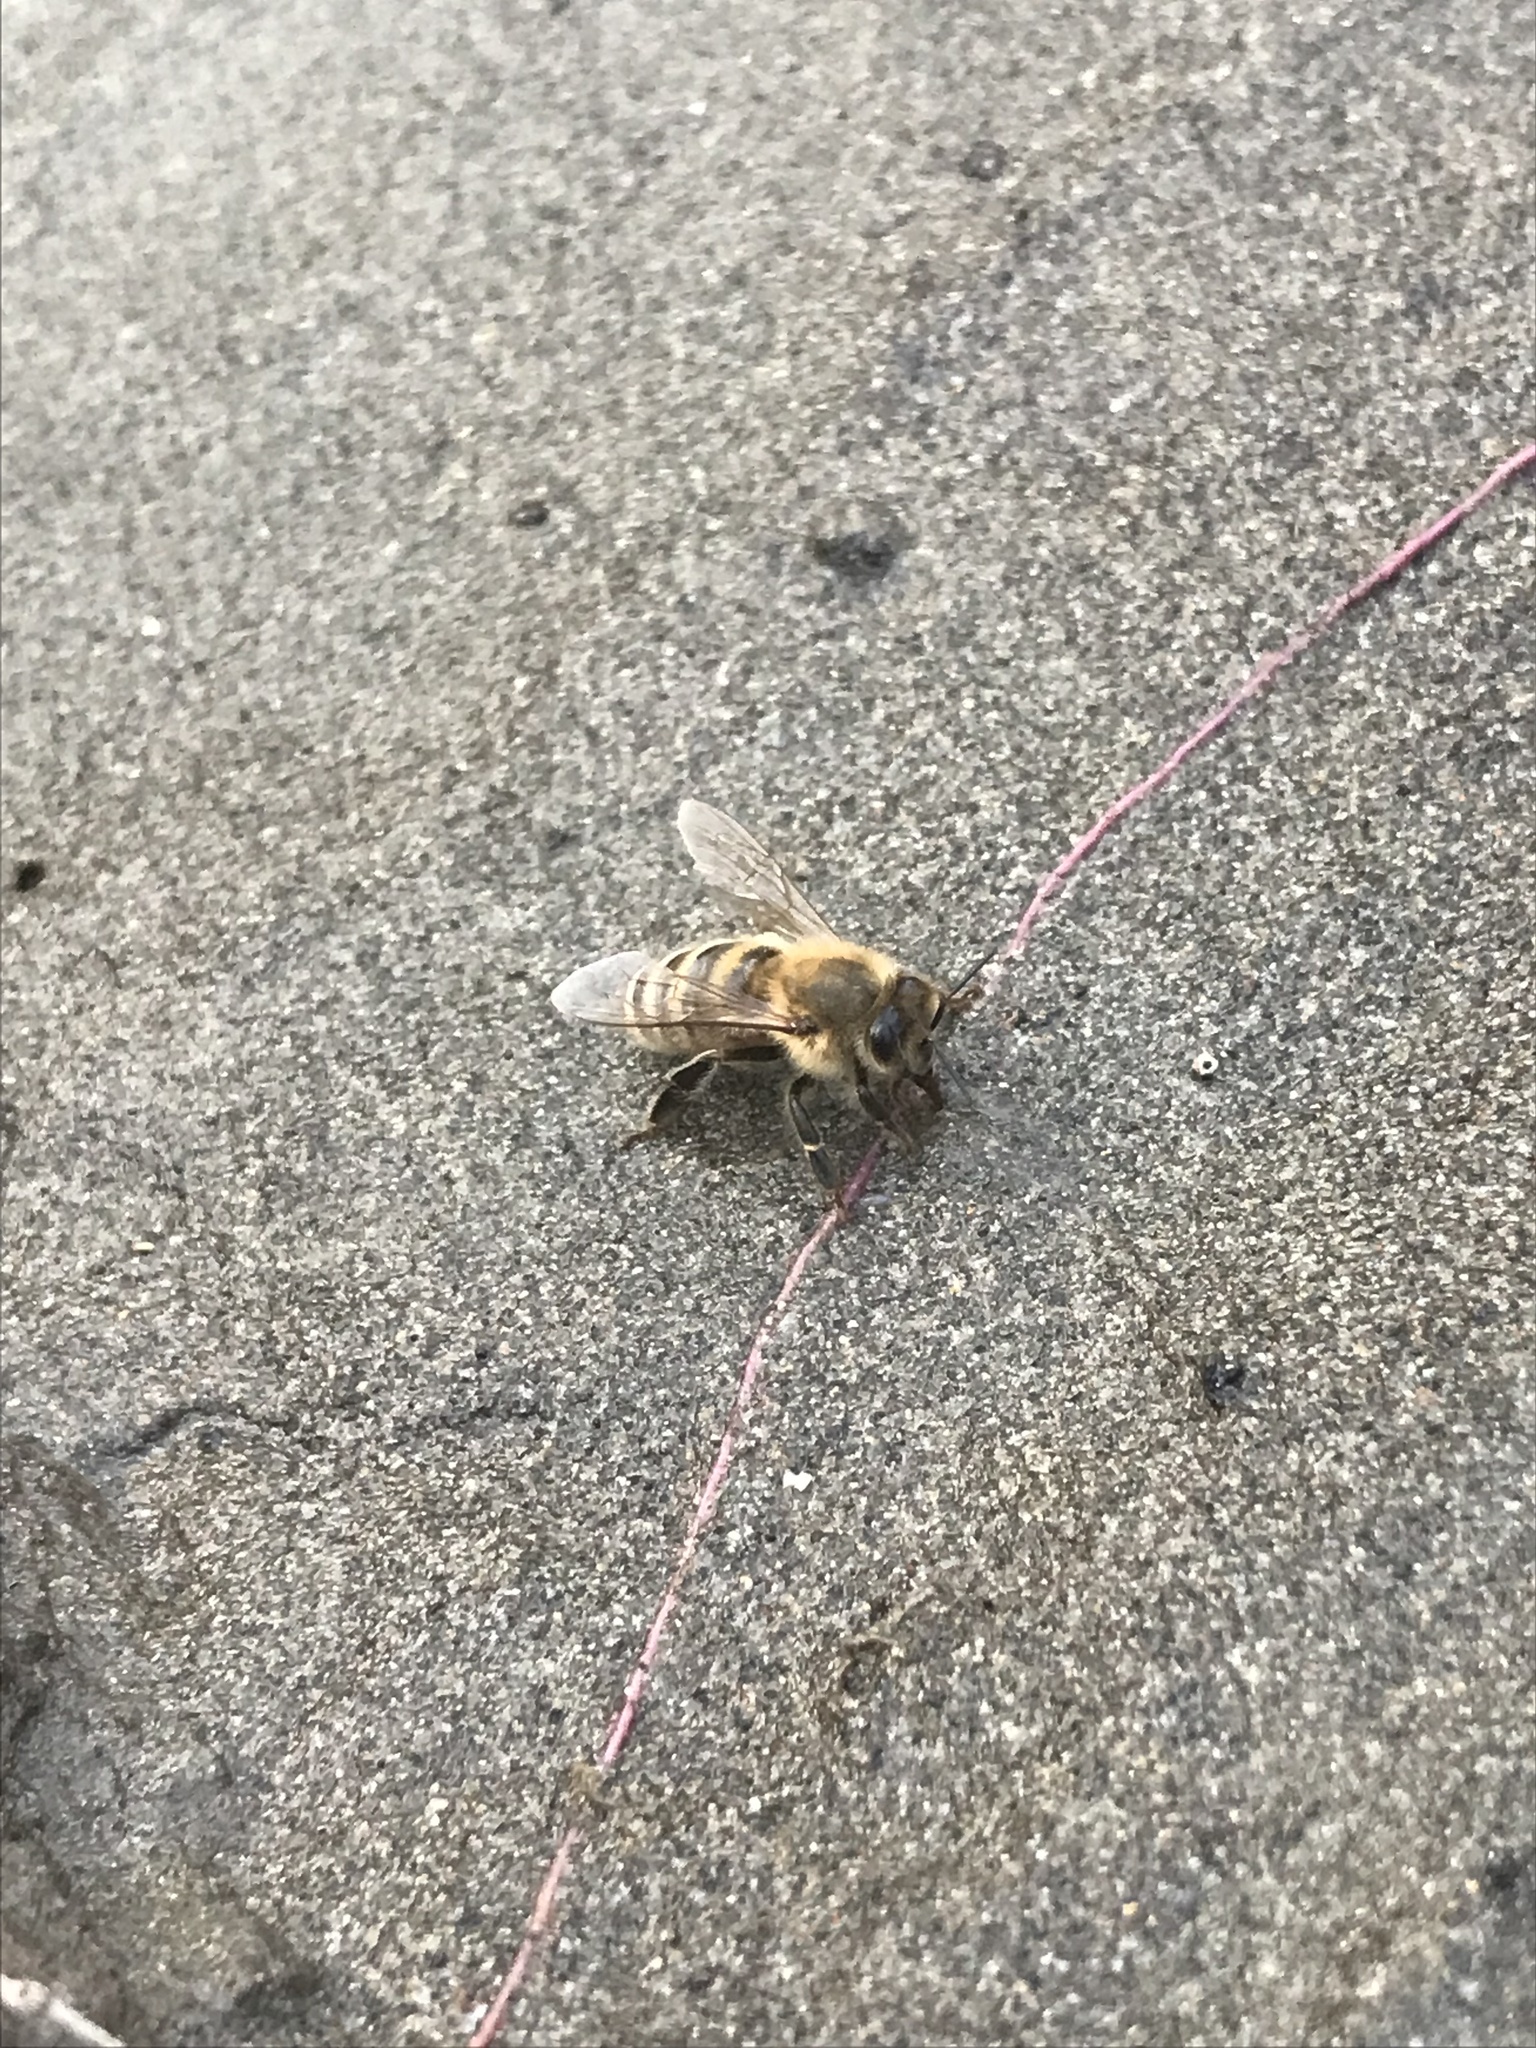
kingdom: Animalia
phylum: Arthropoda
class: Insecta
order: Hymenoptera
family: Apidae
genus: Apis
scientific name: Apis mellifera
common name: Honey bee
